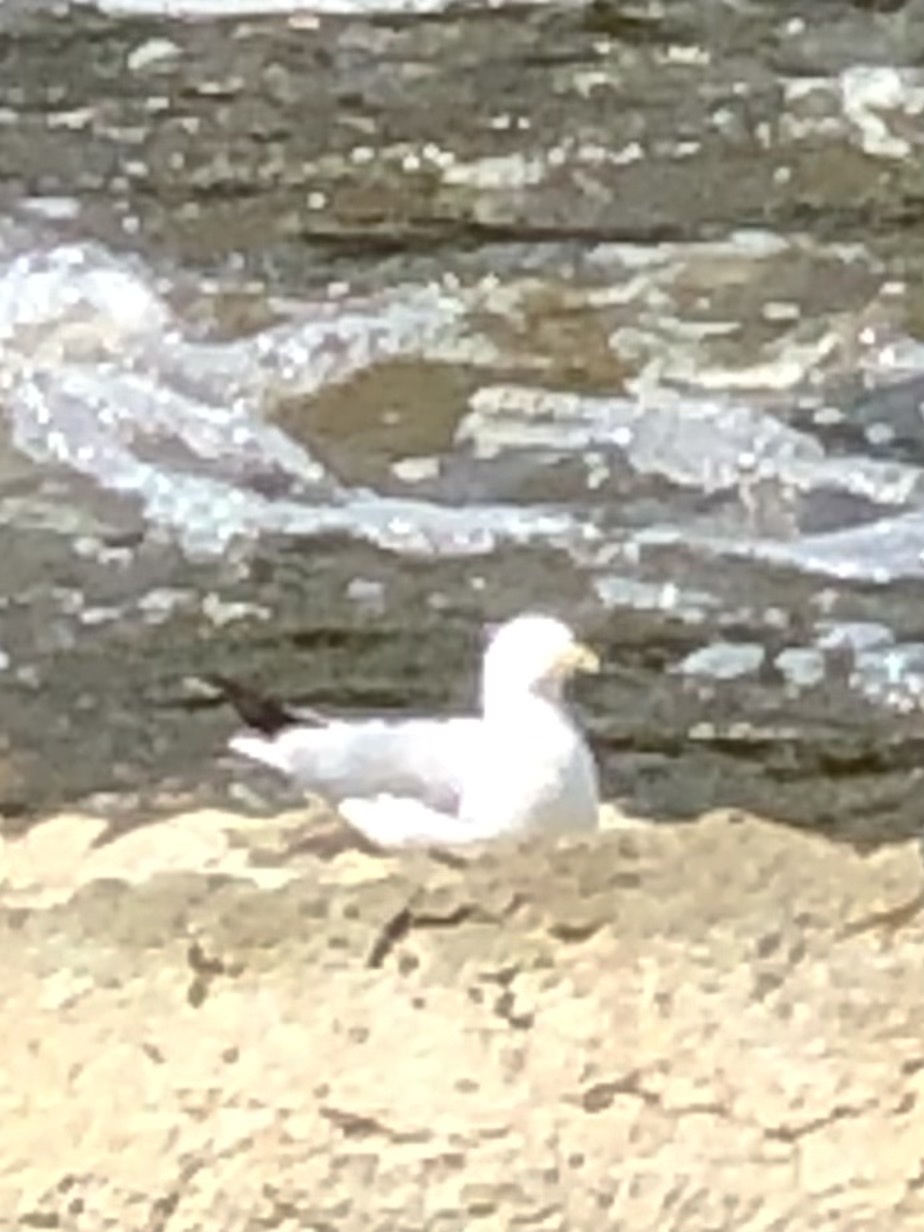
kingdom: Animalia
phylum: Chordata
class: Aves
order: Charadriiformes
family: Laridae
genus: Larus
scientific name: Larus delawarensis
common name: Ring-billed gull
